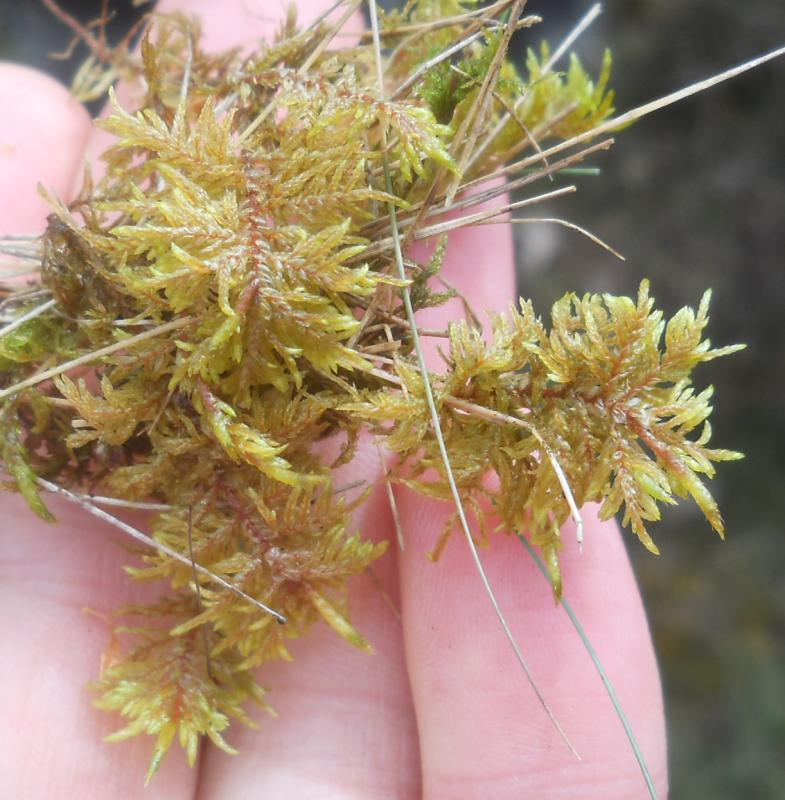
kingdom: Plantae
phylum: Bryophyta
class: Bryopsida
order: Hypnales
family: Hylocomiaceae
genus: Hylocomium
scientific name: Hylocomium splendens
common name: Stairstep moss
